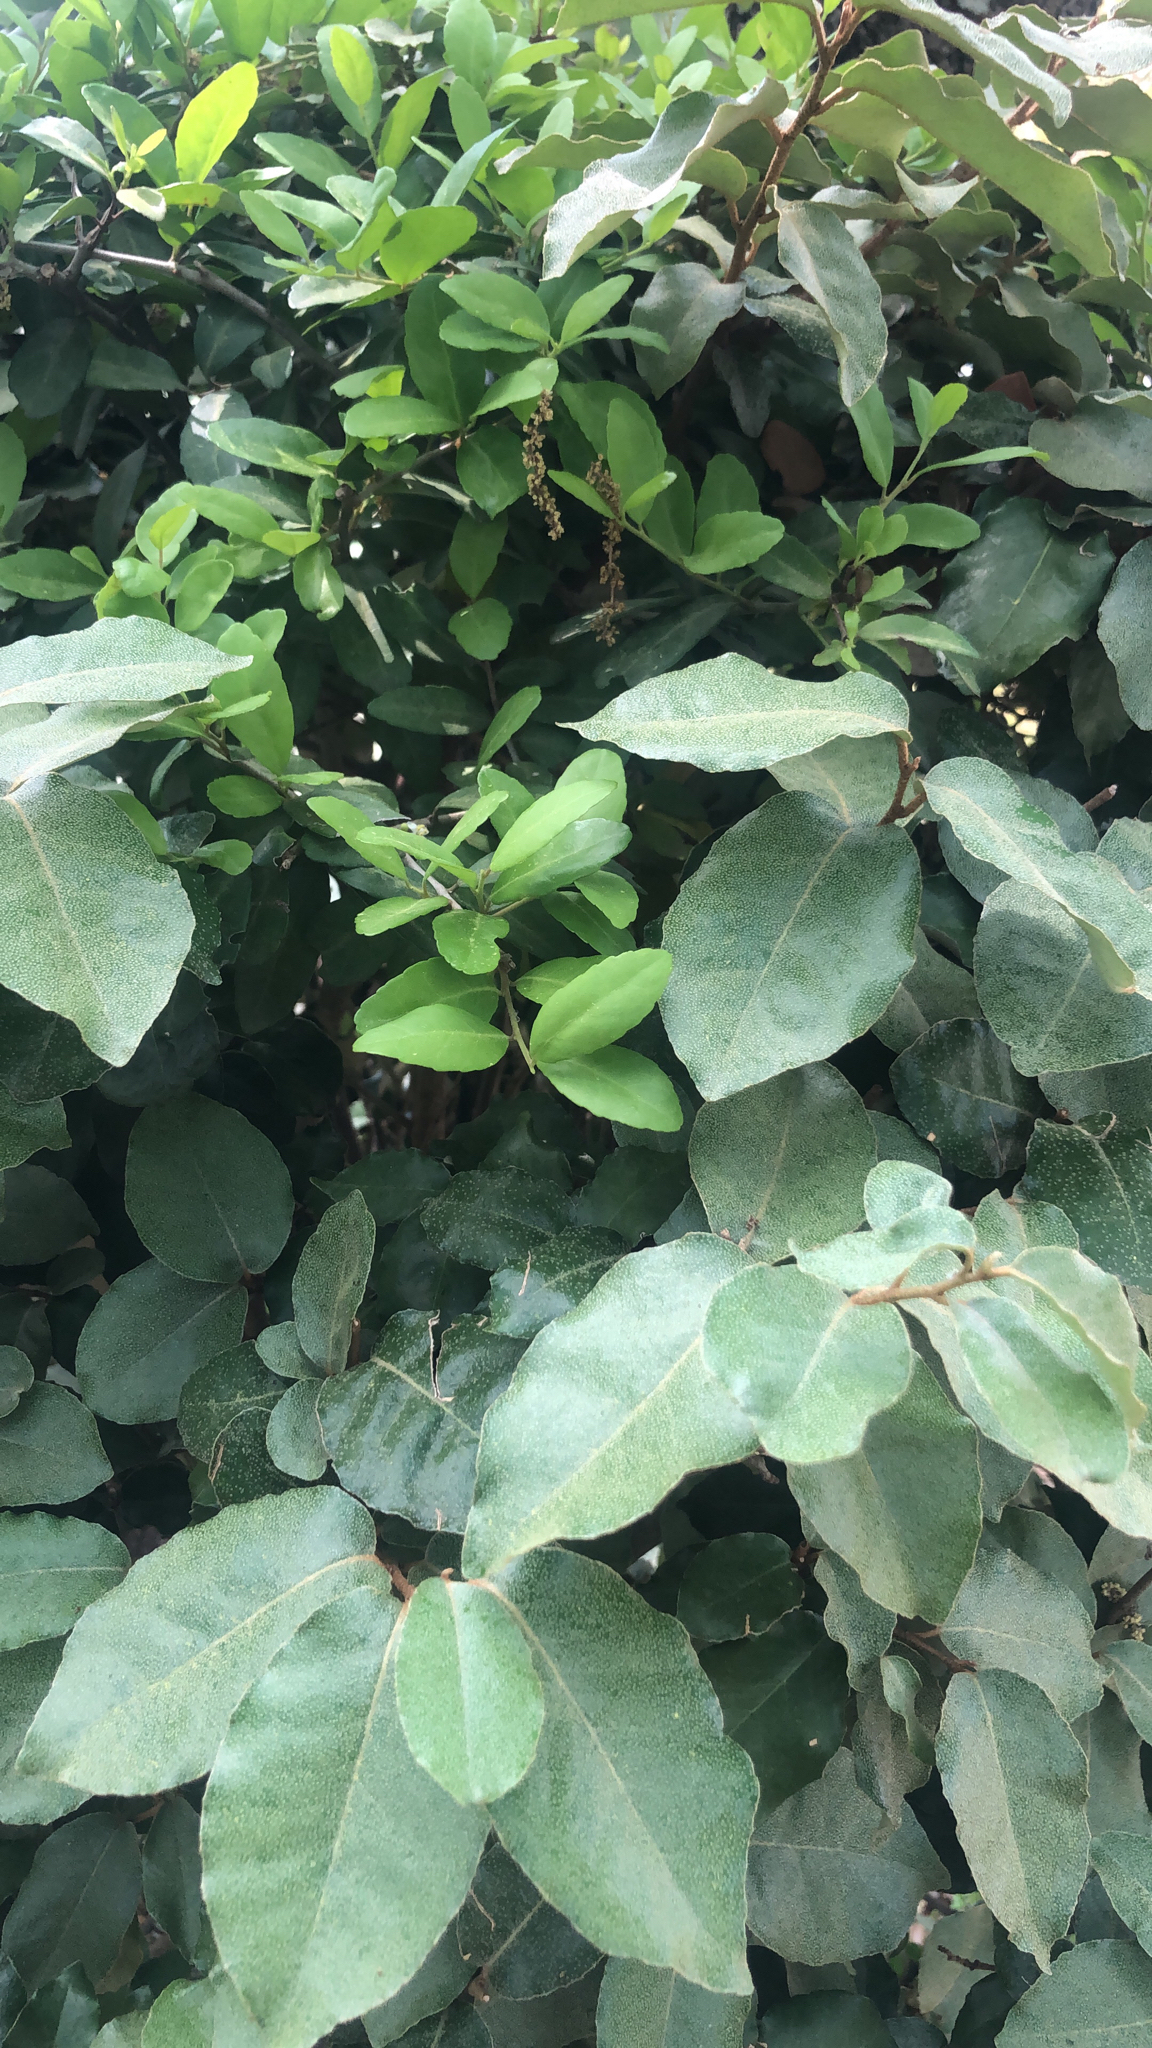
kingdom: Plantae
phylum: Tracheophyta
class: Magnoliopsida
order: Rosales
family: Elaeagnaceae
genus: Elaeagnus
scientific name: Elaeagnus pungens
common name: Spiny oleaster
